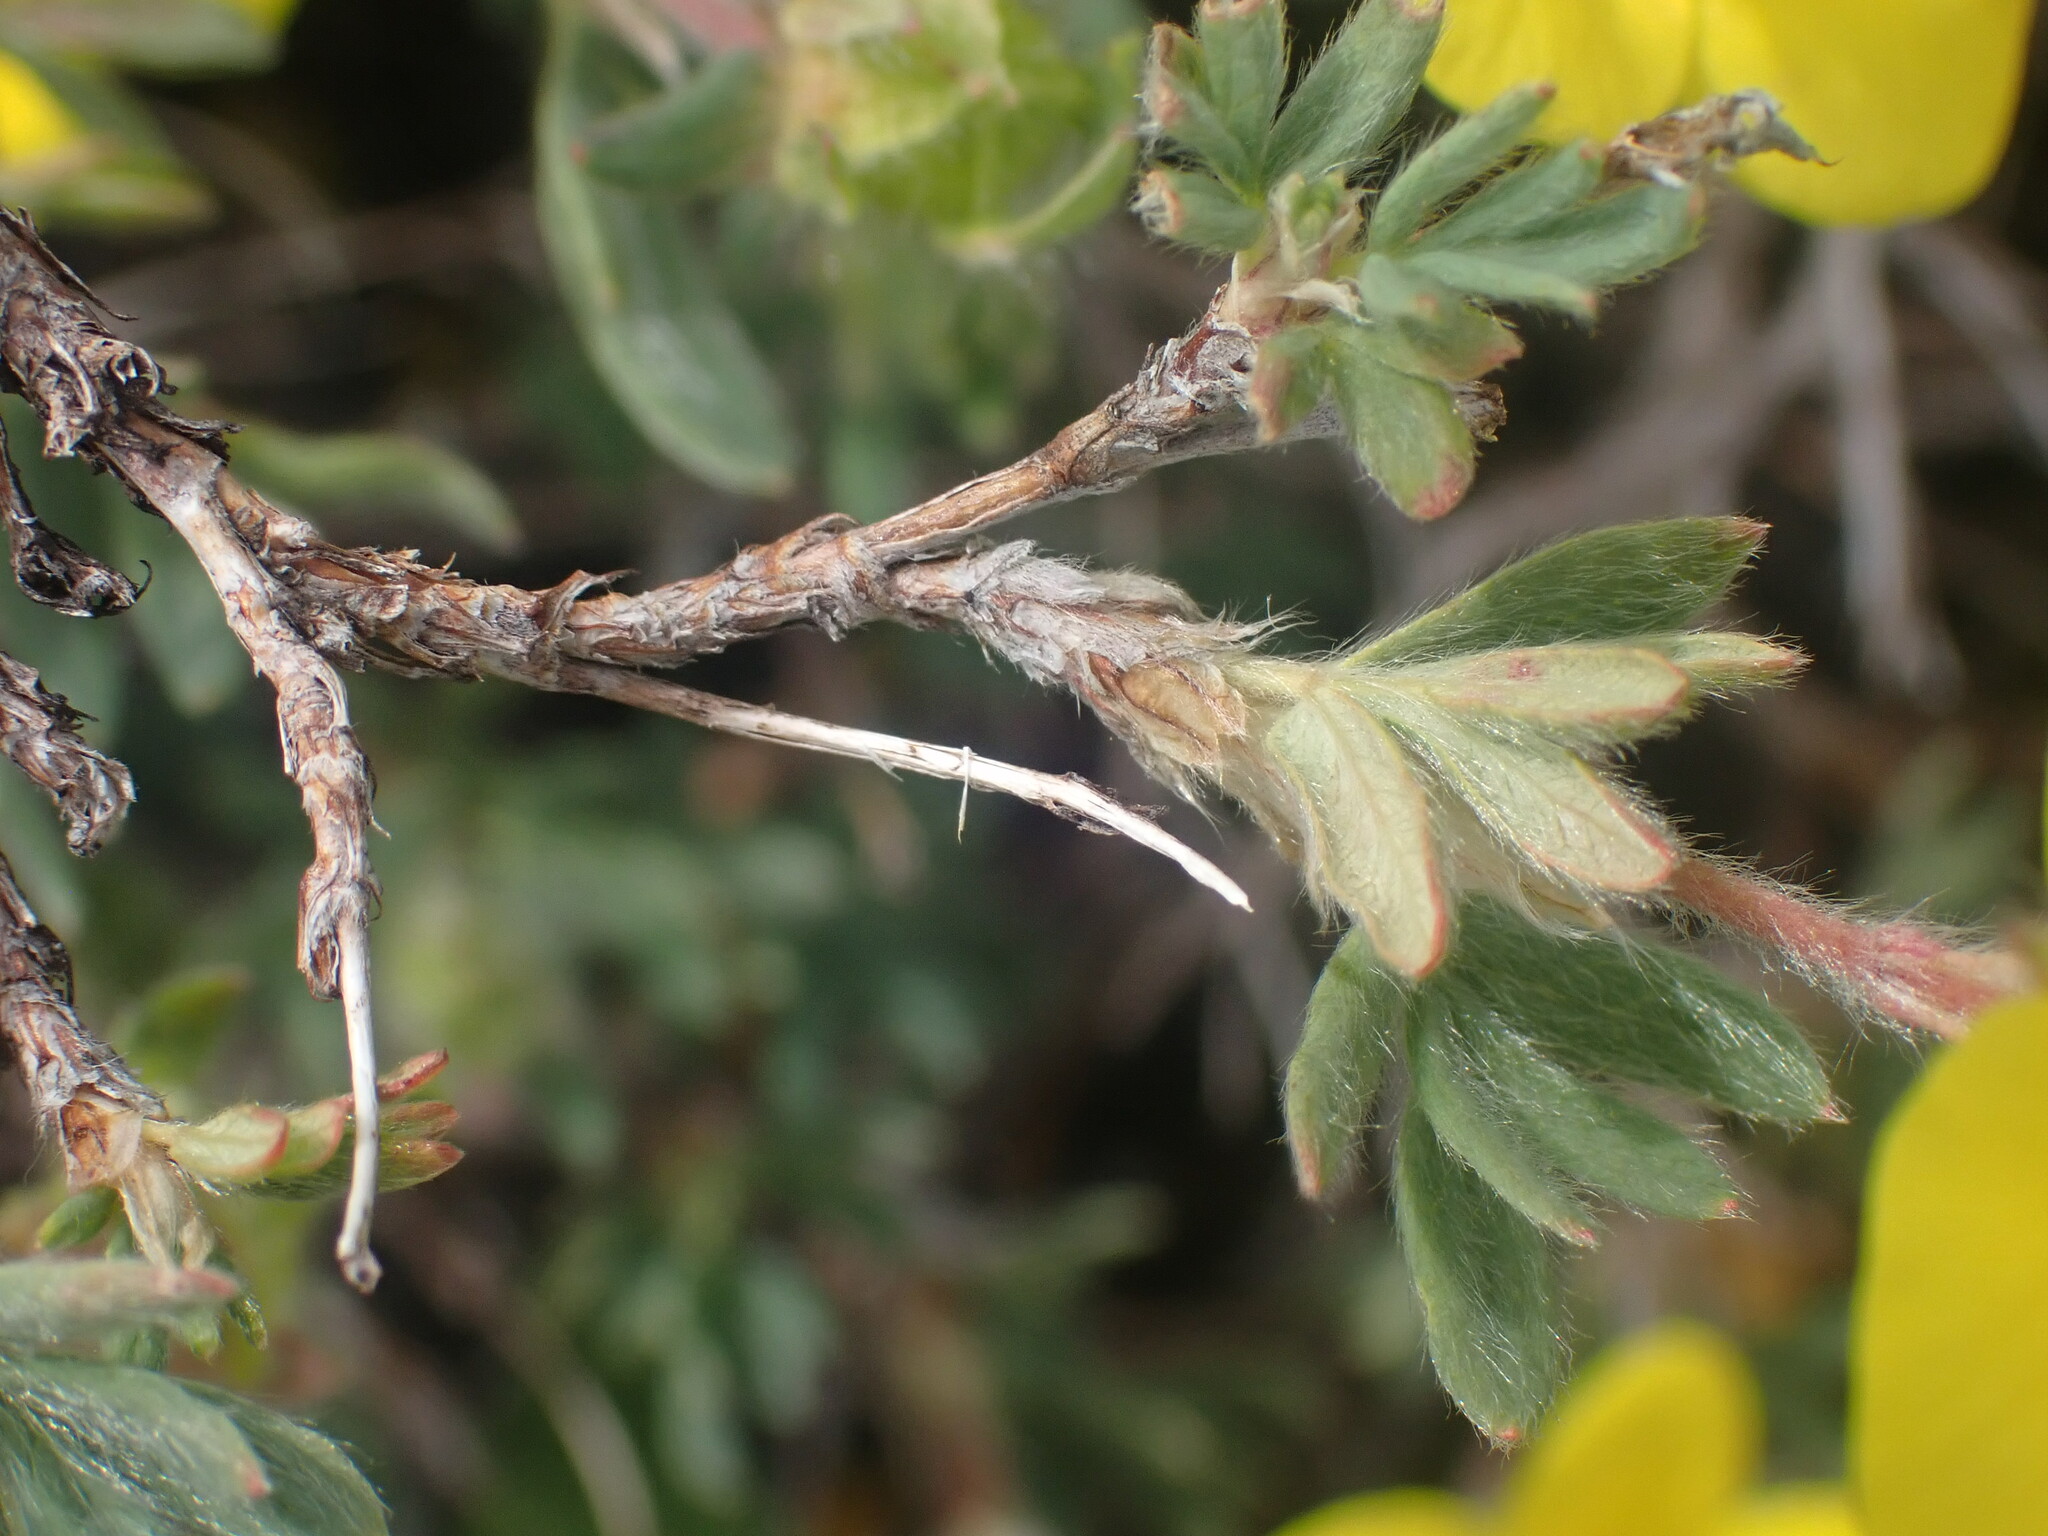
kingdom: Plantae
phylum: Tracheophyta
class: Magnoliopsida
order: Rosales
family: Rosaceae
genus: Dasiphora
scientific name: Dasiphora fruticosa
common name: Shrubby cinquefoil
